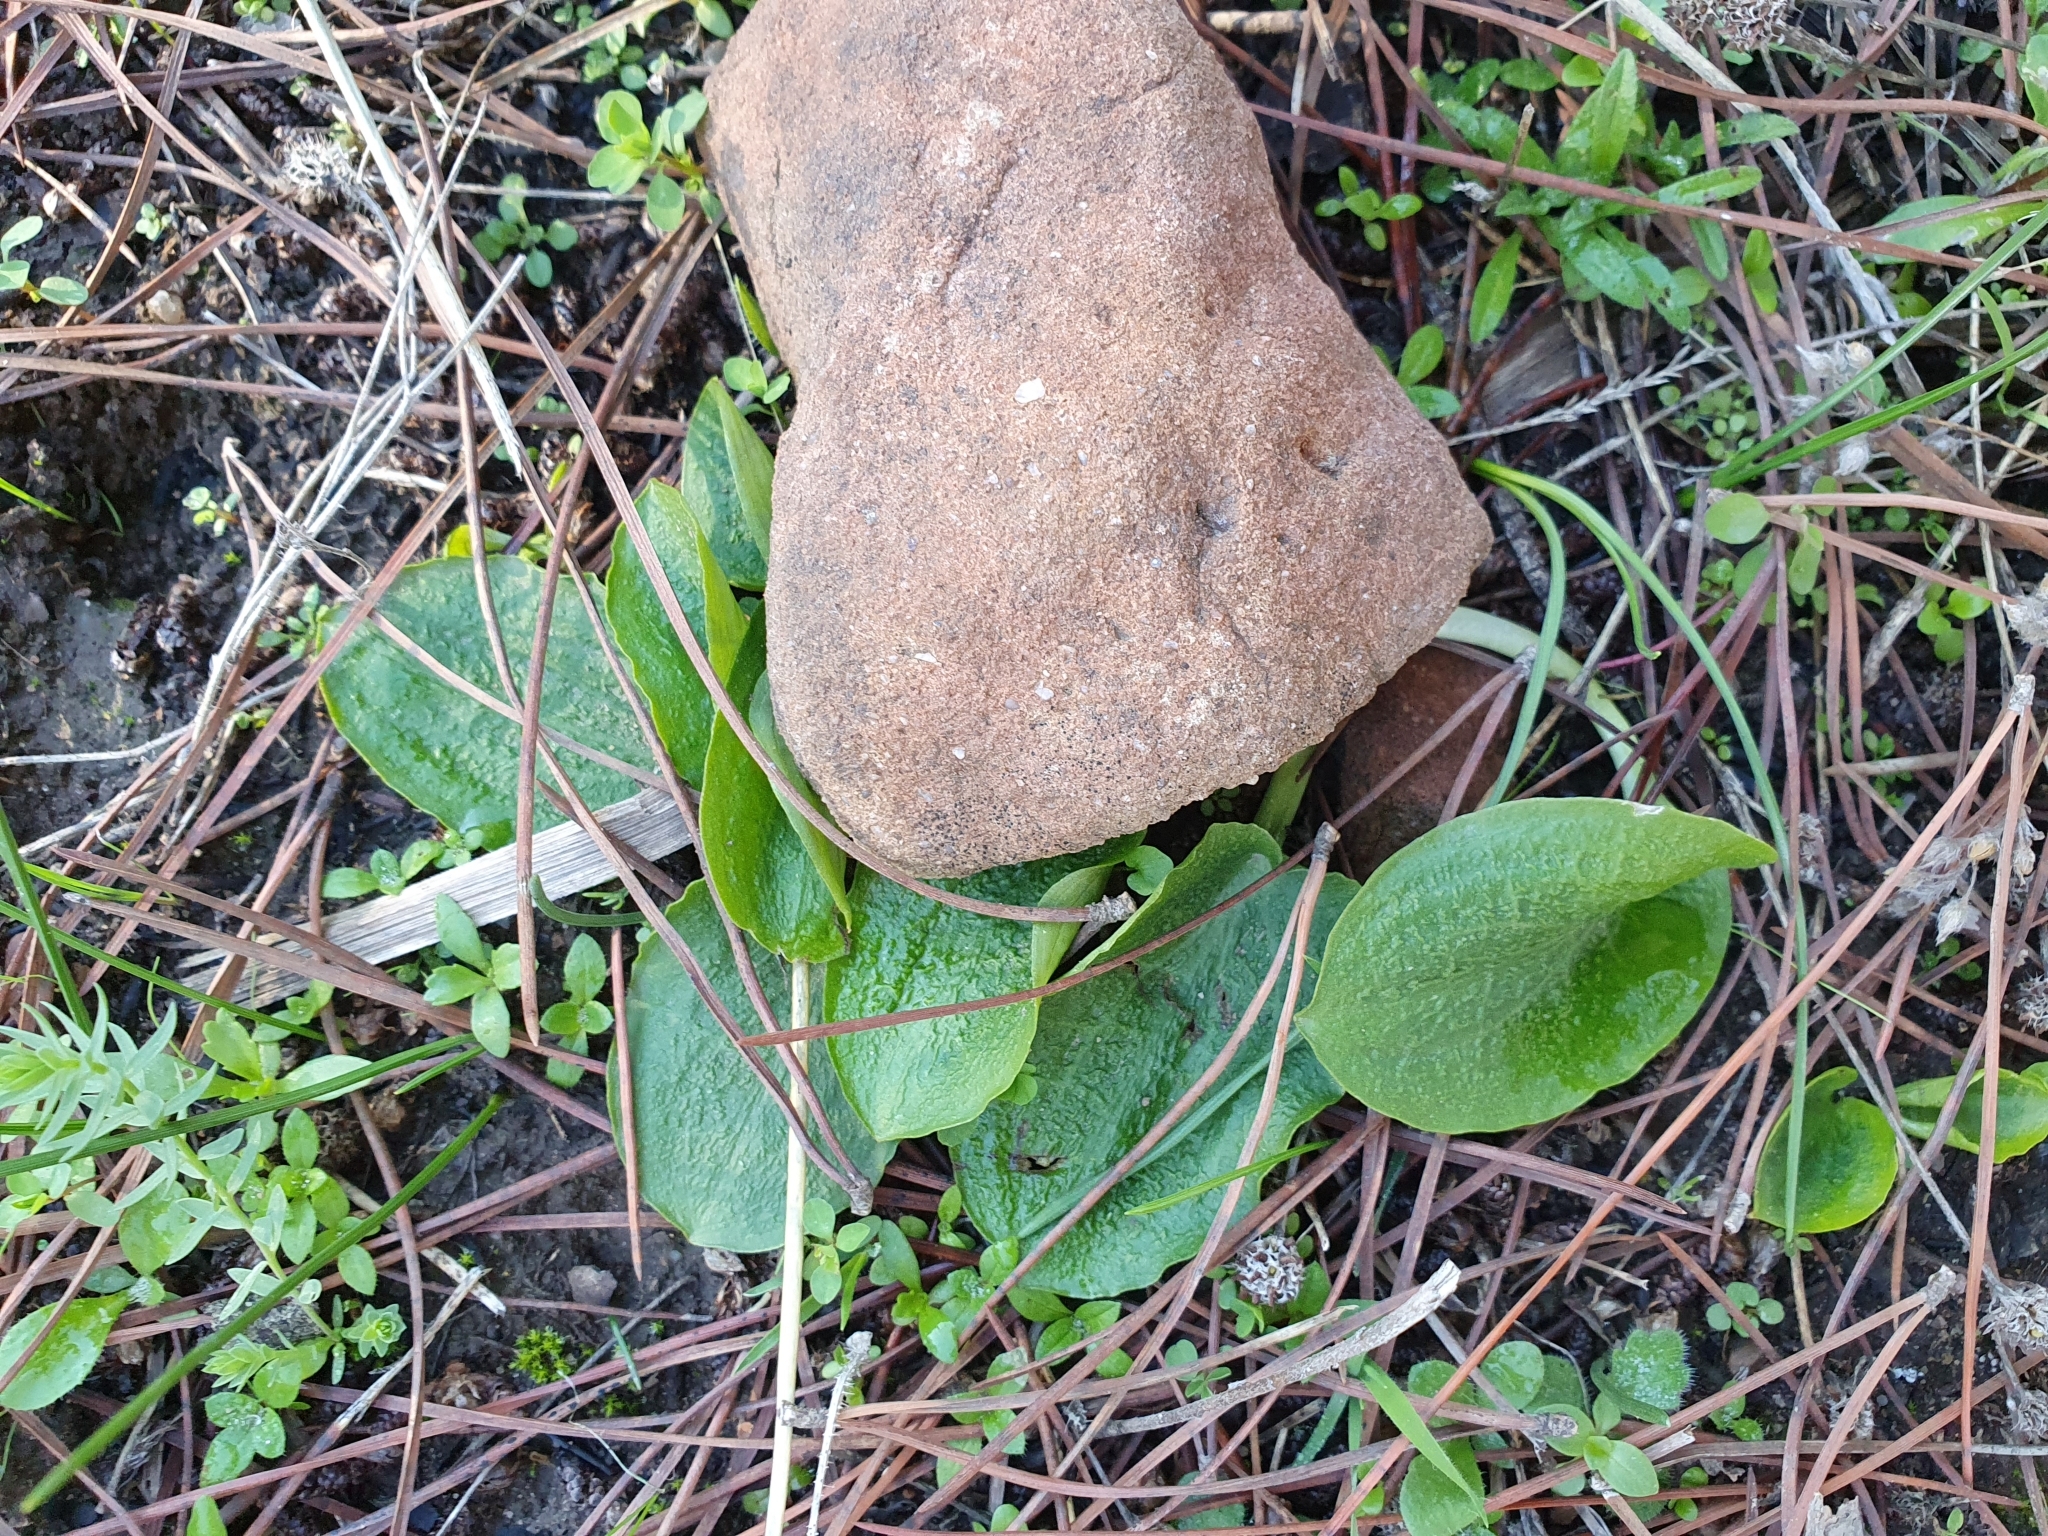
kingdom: Plantae
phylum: Tracheophyta
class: Liliopsida
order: Alismatales
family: Araceae
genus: Ambrosina
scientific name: Ambrosina bassii
